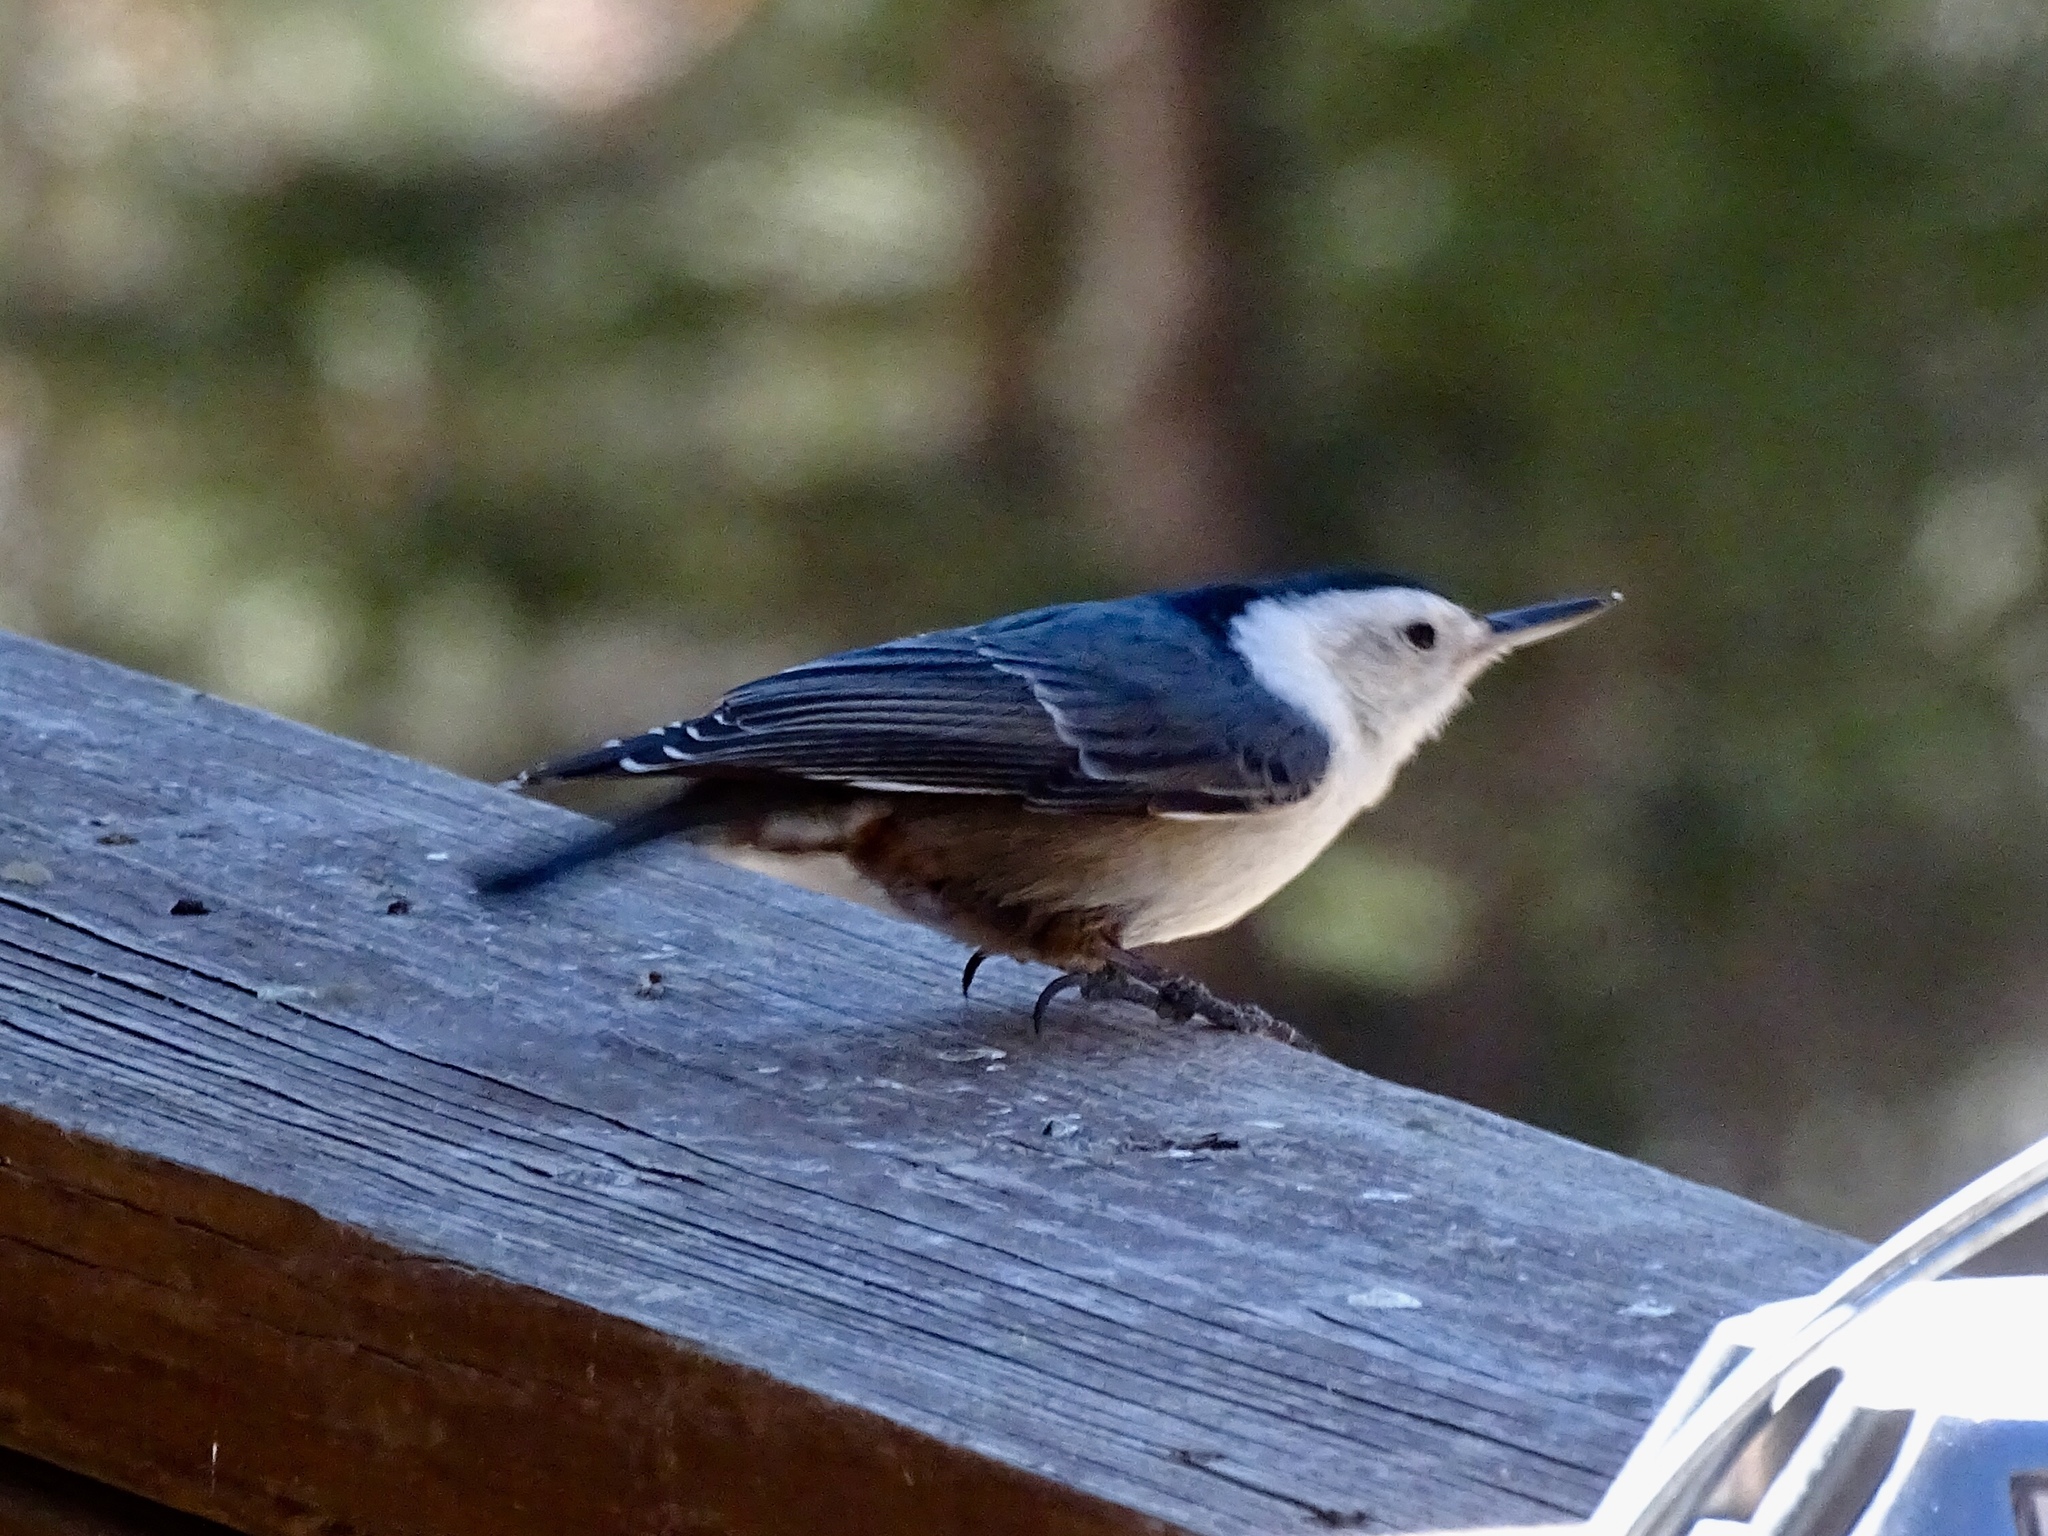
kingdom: Animalia
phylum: Chordata
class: Aves
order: Passeriformes
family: Sittidae
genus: Sitta
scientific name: Sitta carolinensis
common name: White-breasted nuthatch
